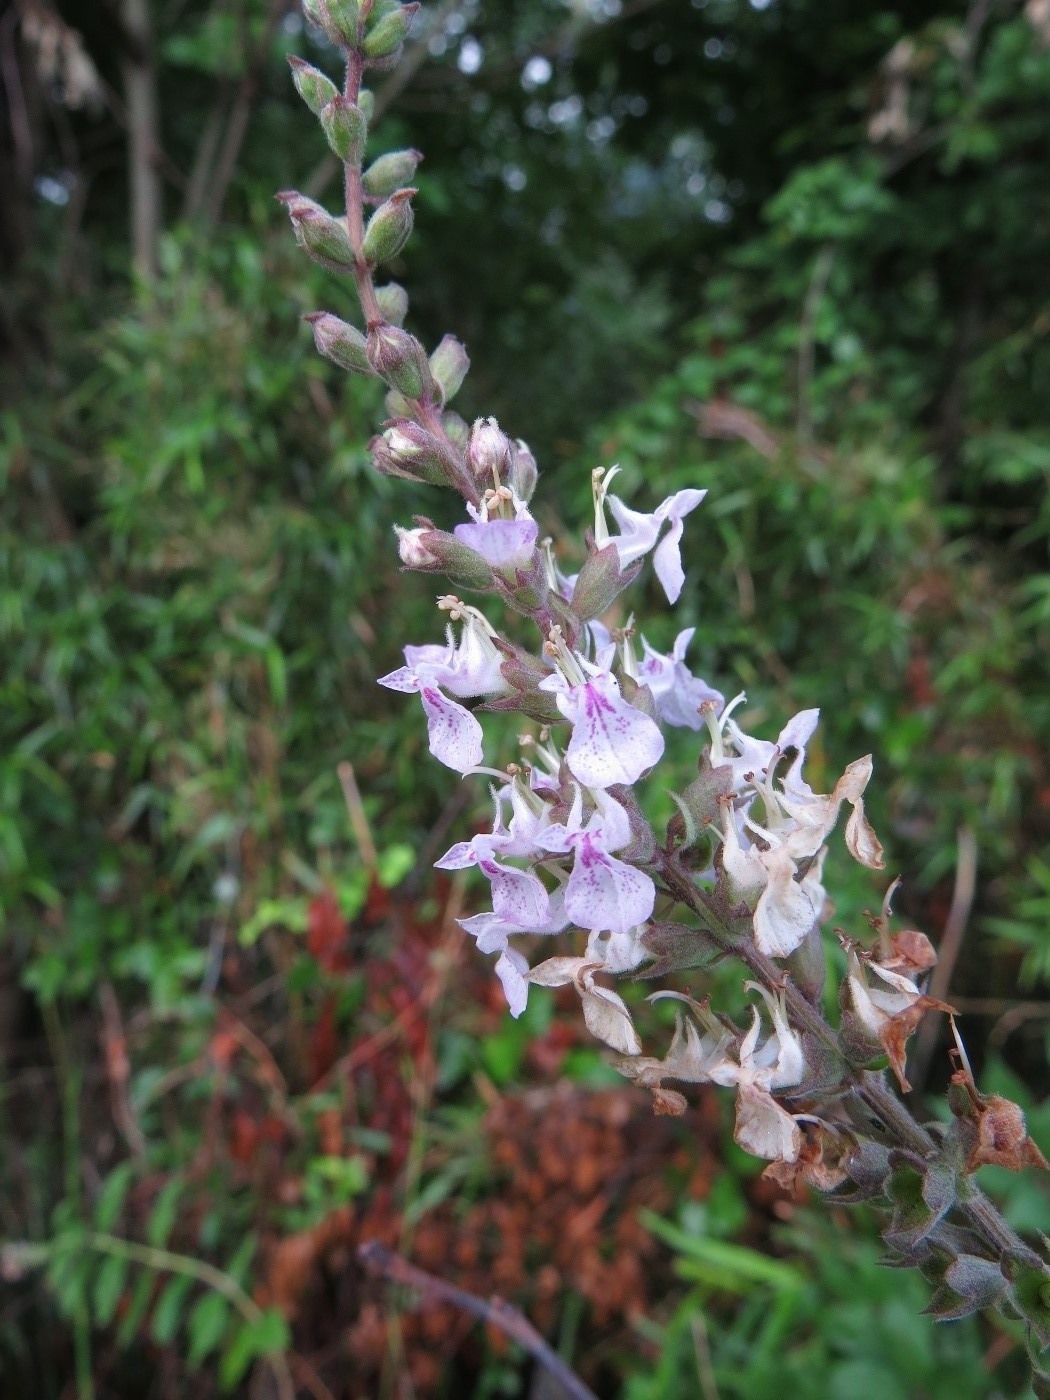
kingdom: Plantae
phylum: Tracheophyta
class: Magnoliopsida
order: Lamiales
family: Lamiaceae
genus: Teucrium
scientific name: Teucrium canadense
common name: American germander
